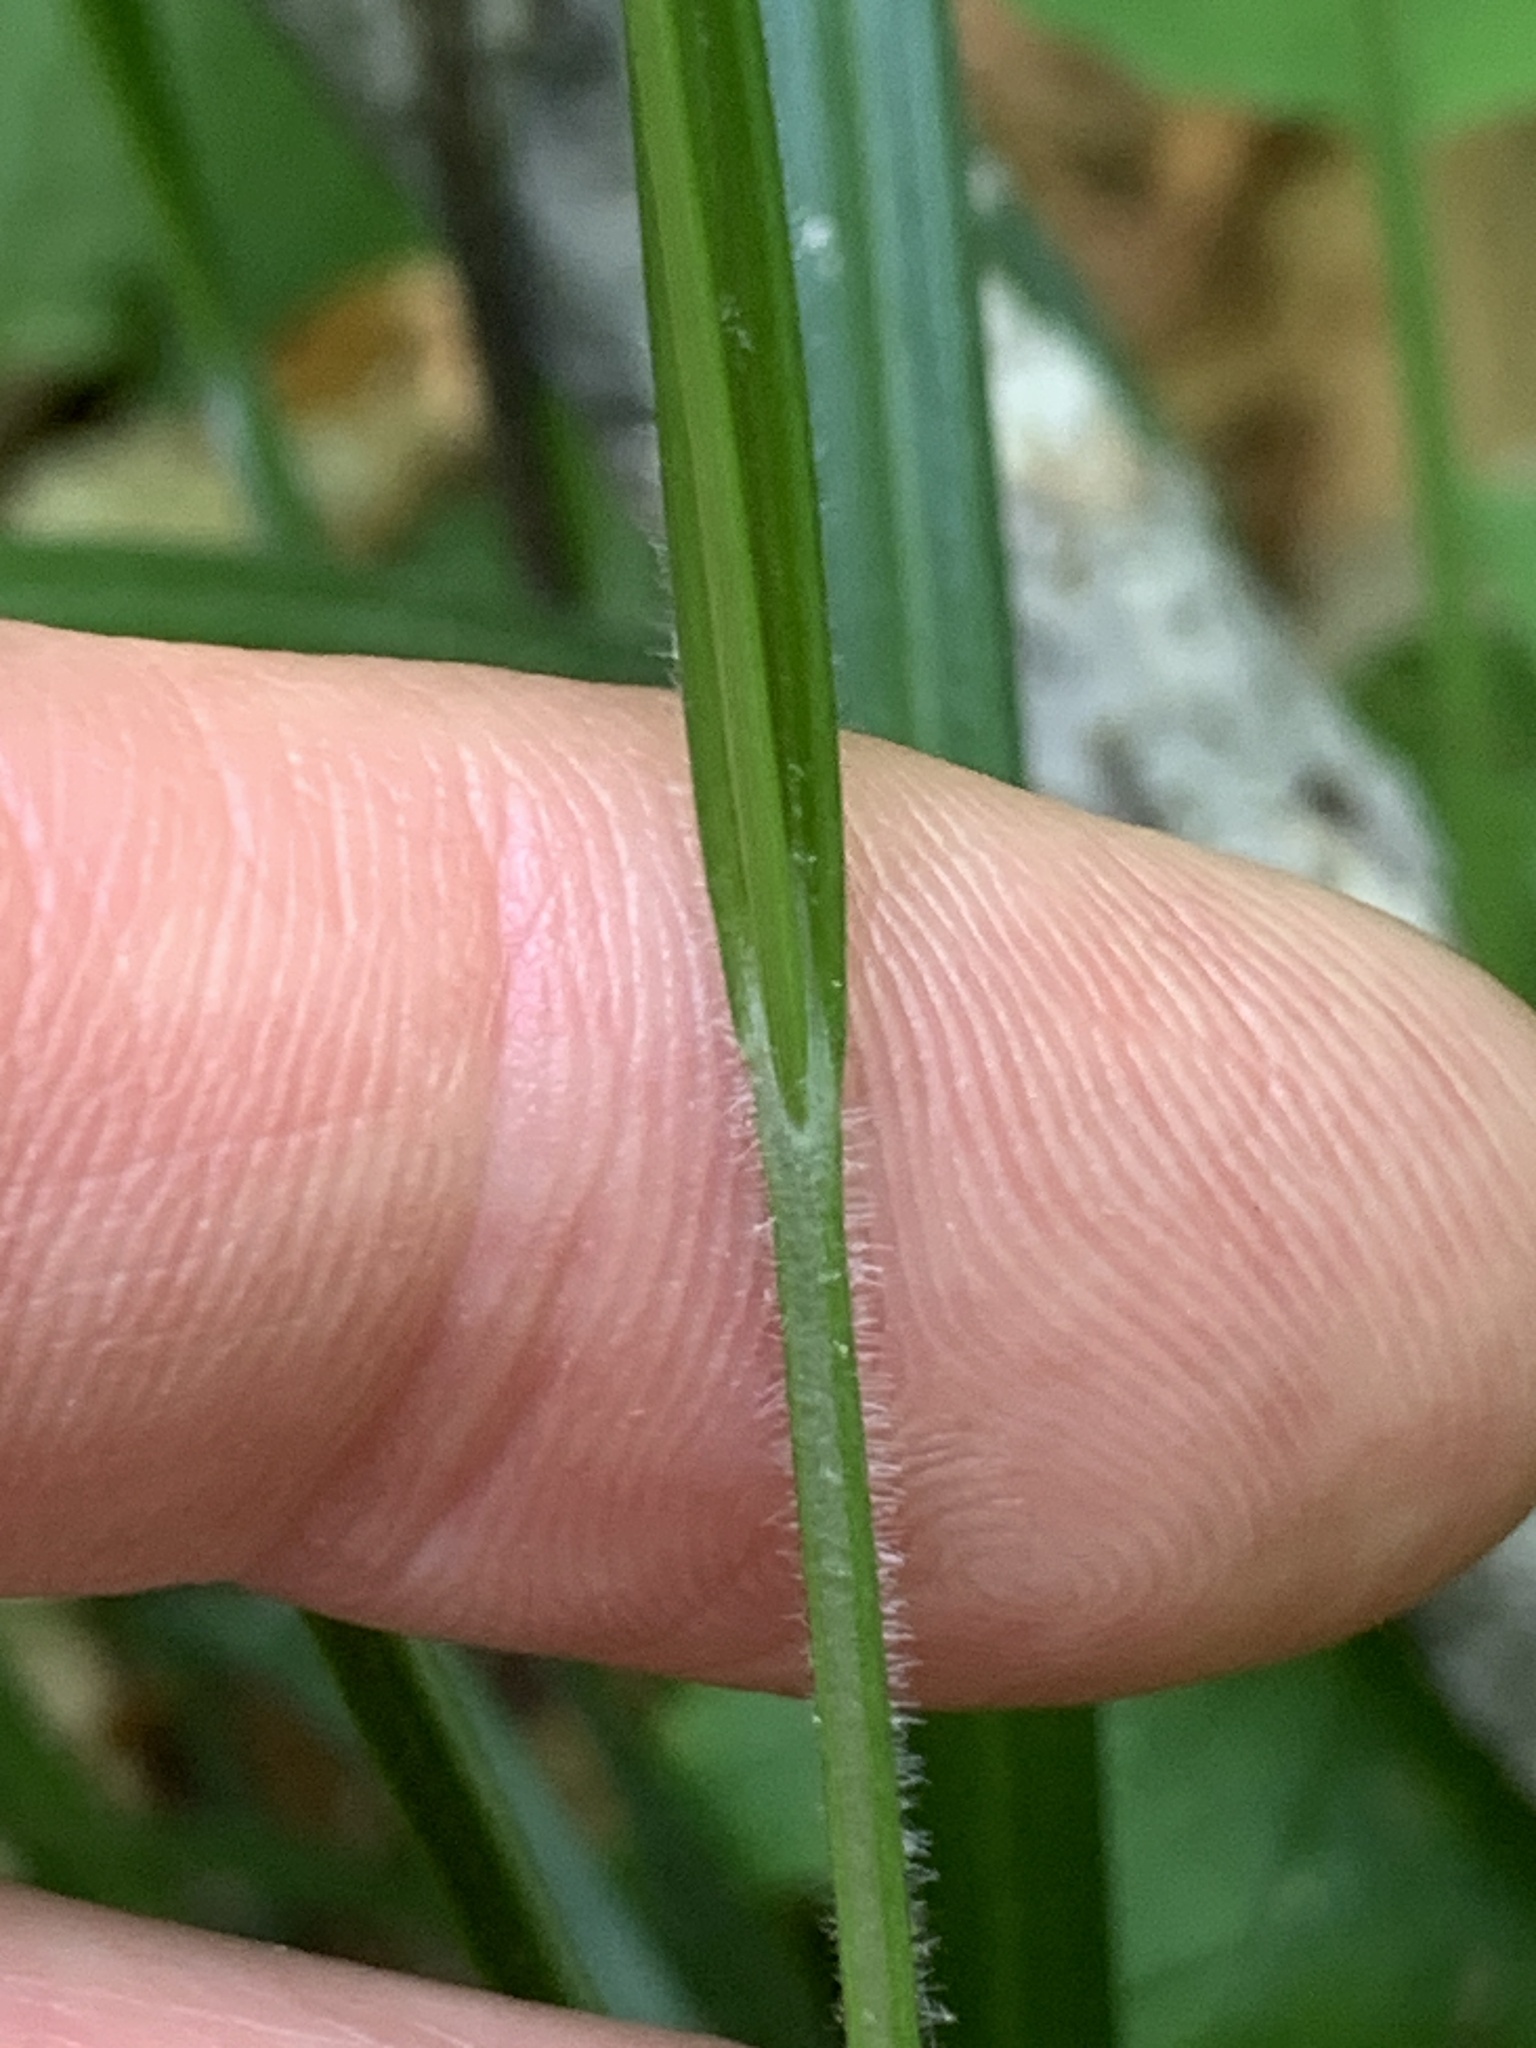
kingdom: Plantae
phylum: Tracheophyta
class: Liliopsida
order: Poales
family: Cyperaceae
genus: Carex
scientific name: Carex virescens
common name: Ribbed sedge
